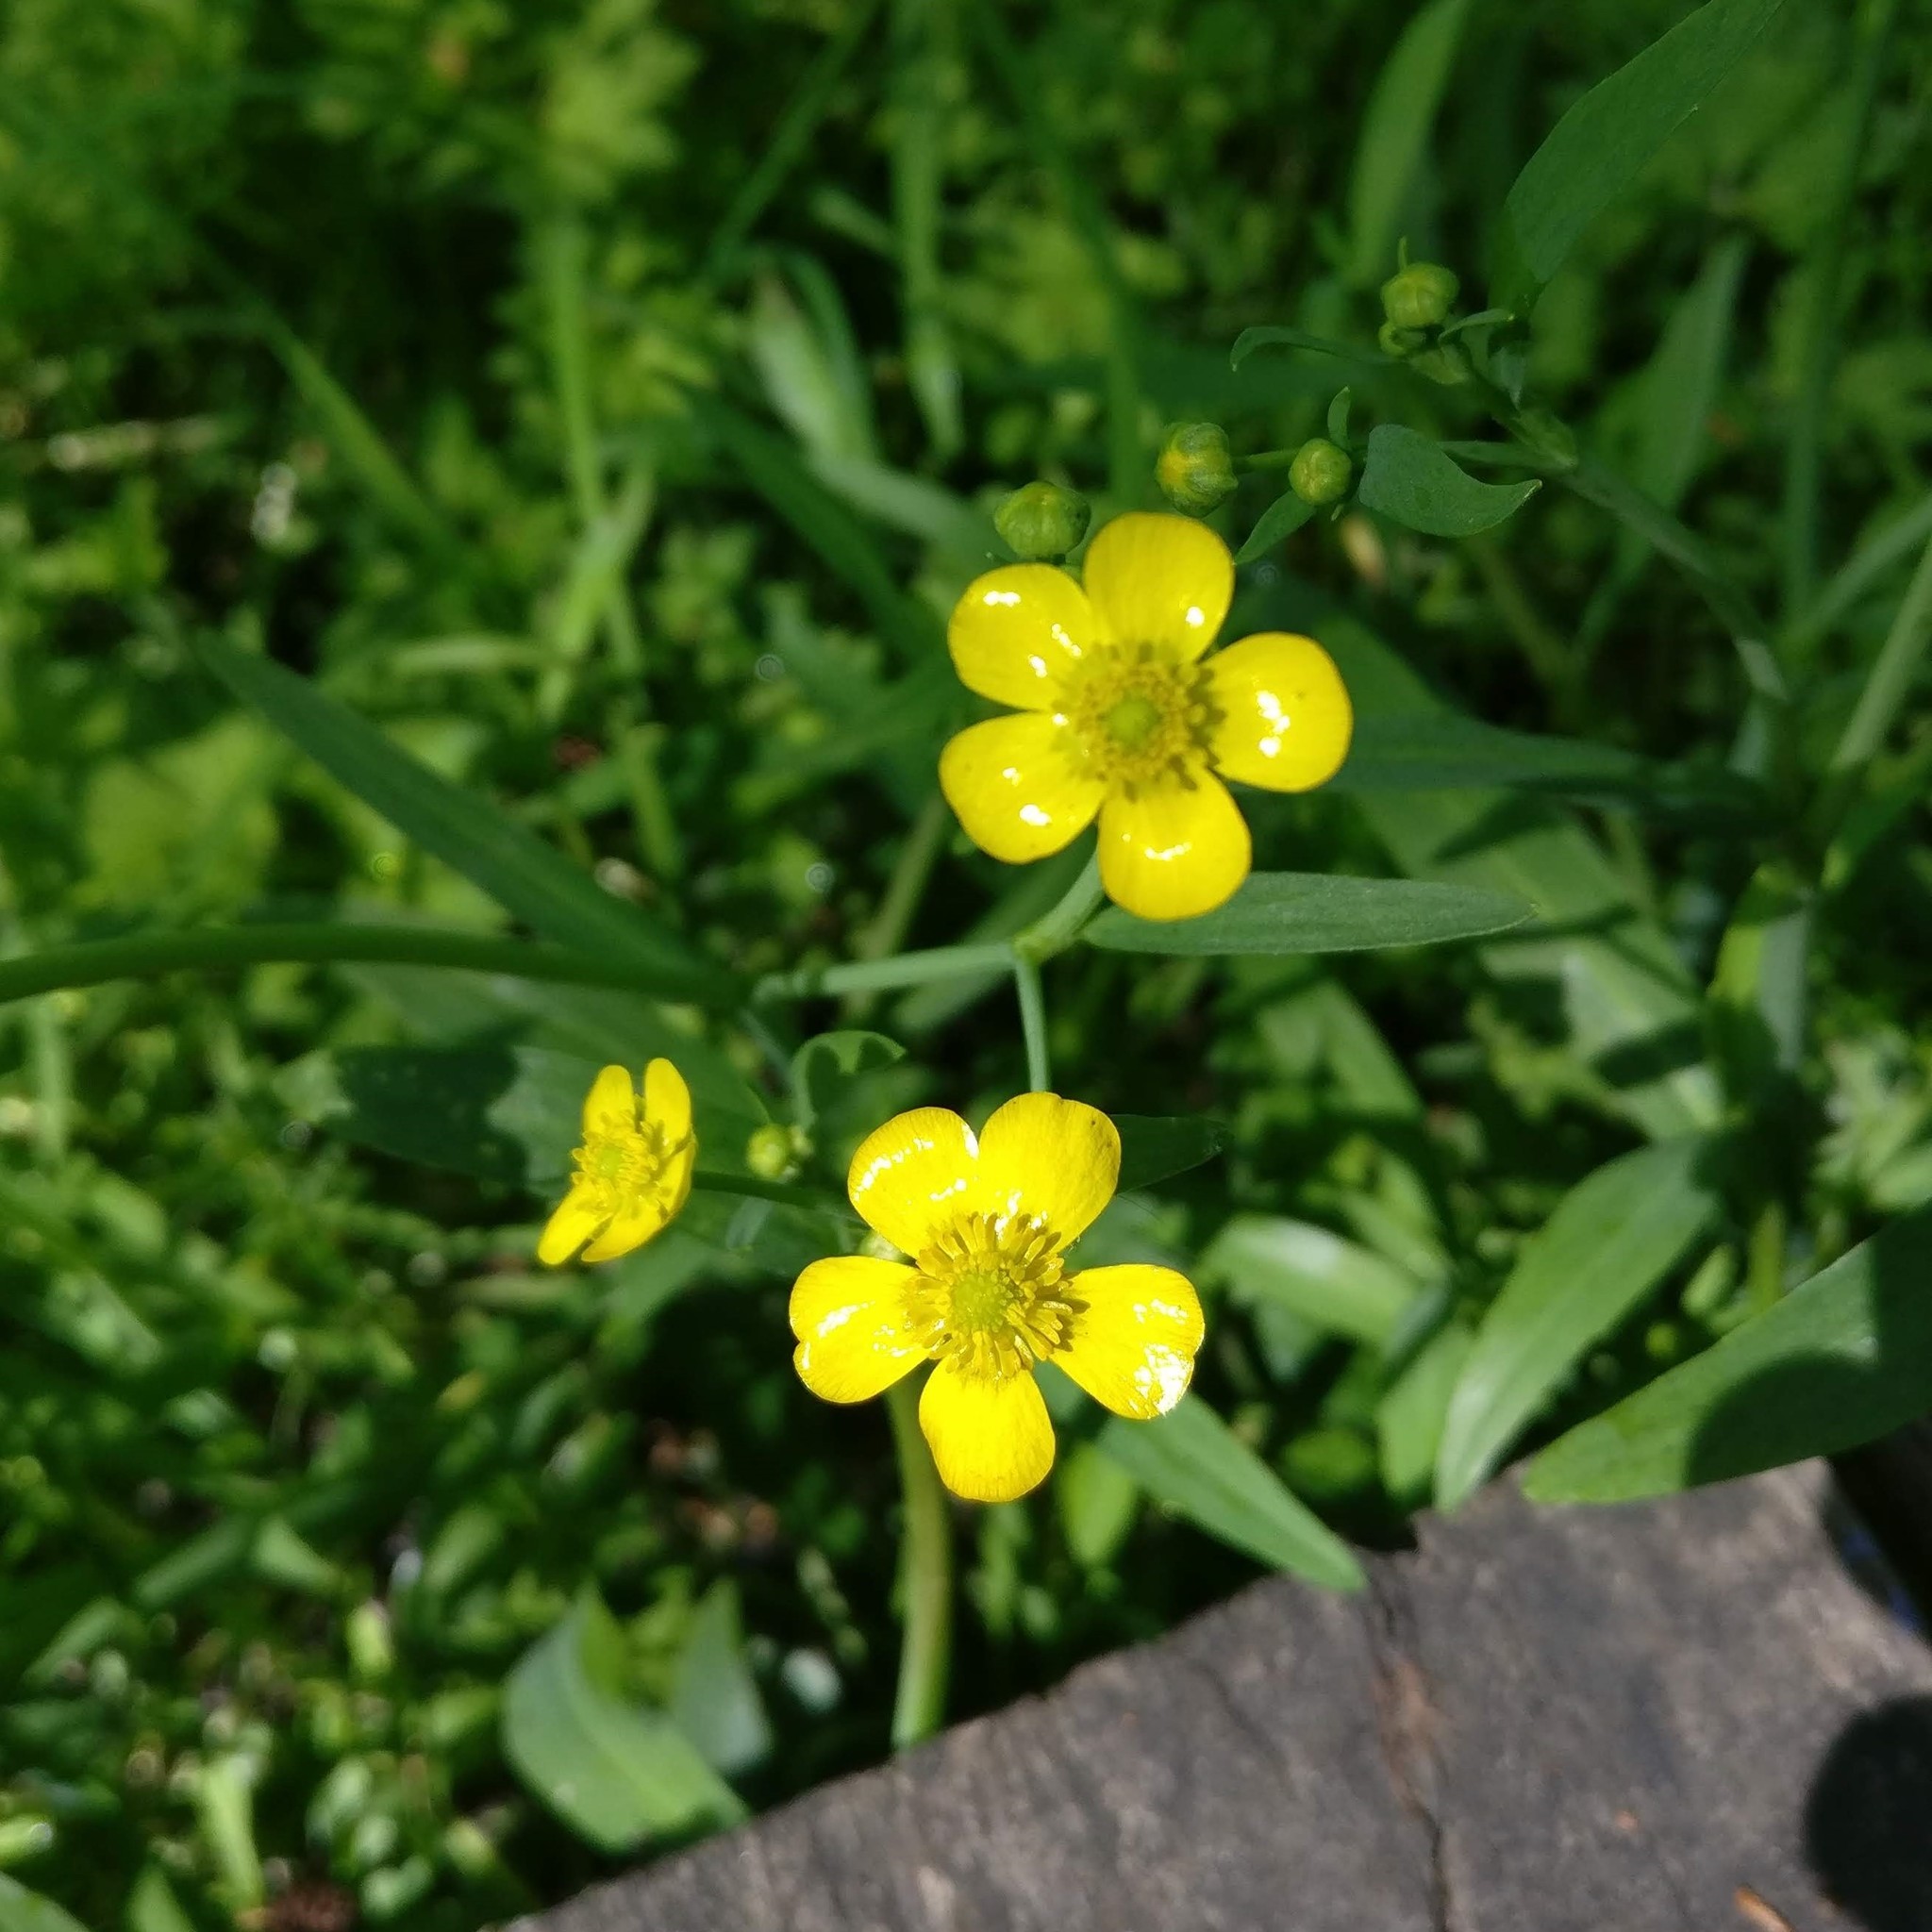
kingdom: Plantae
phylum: Tracheophyta
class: Magnoliopsida
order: Ranunculales
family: Ranunculaceae
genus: Ranunculus
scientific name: Ranunculus flammula
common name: Lesser spearwort
